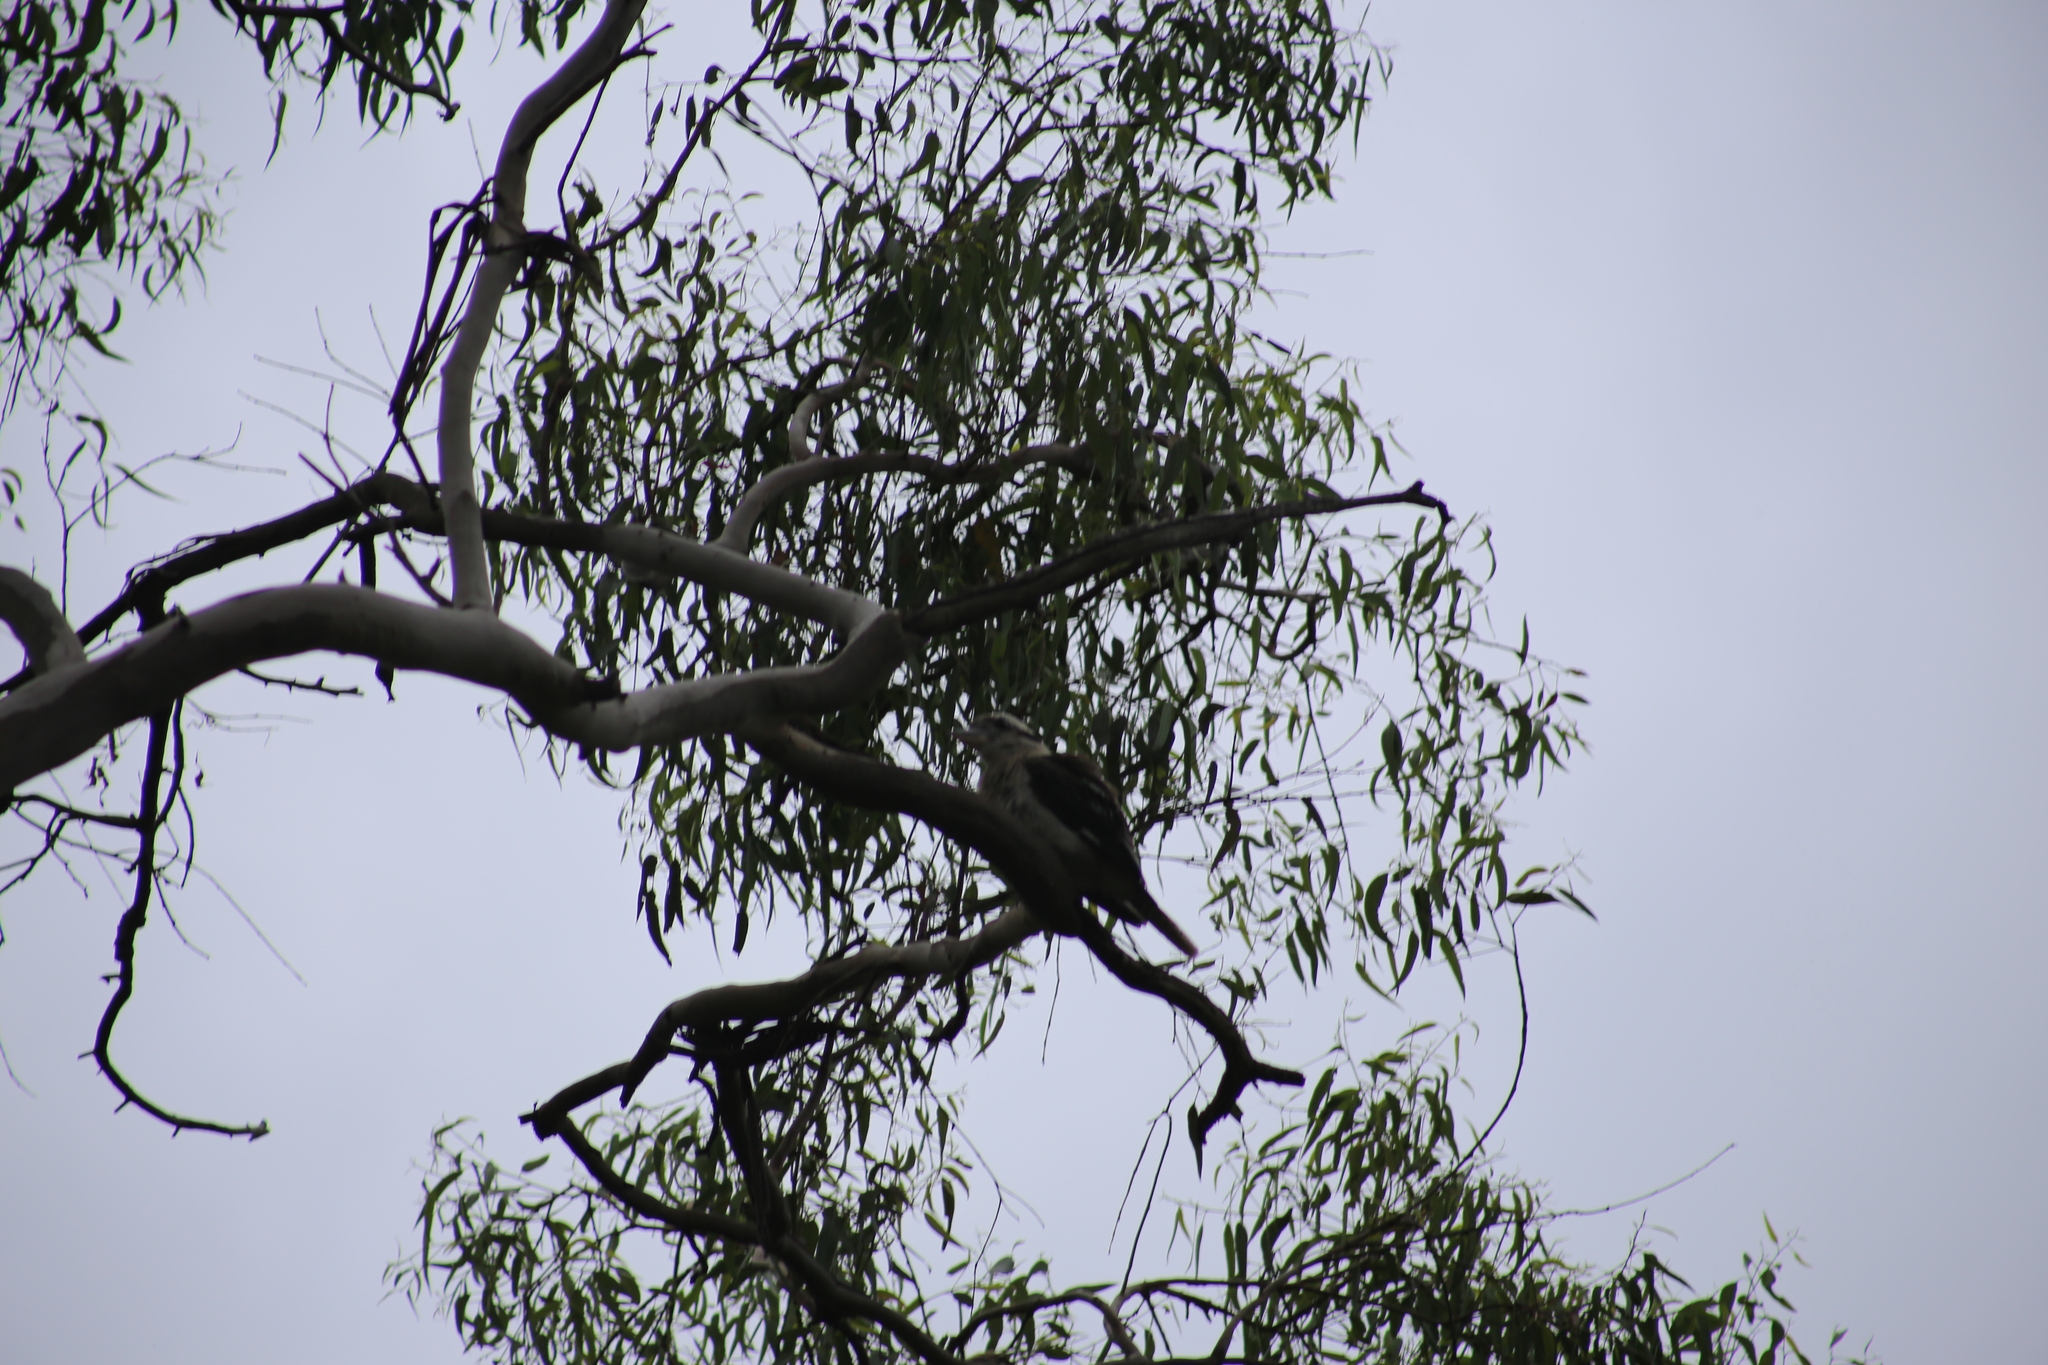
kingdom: Animalia
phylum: Chordata
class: Aves
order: Coraciiformes
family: Alcedinidae
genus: Dacelo
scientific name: Dacelo novaeguineae
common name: Laughing kookaburra
